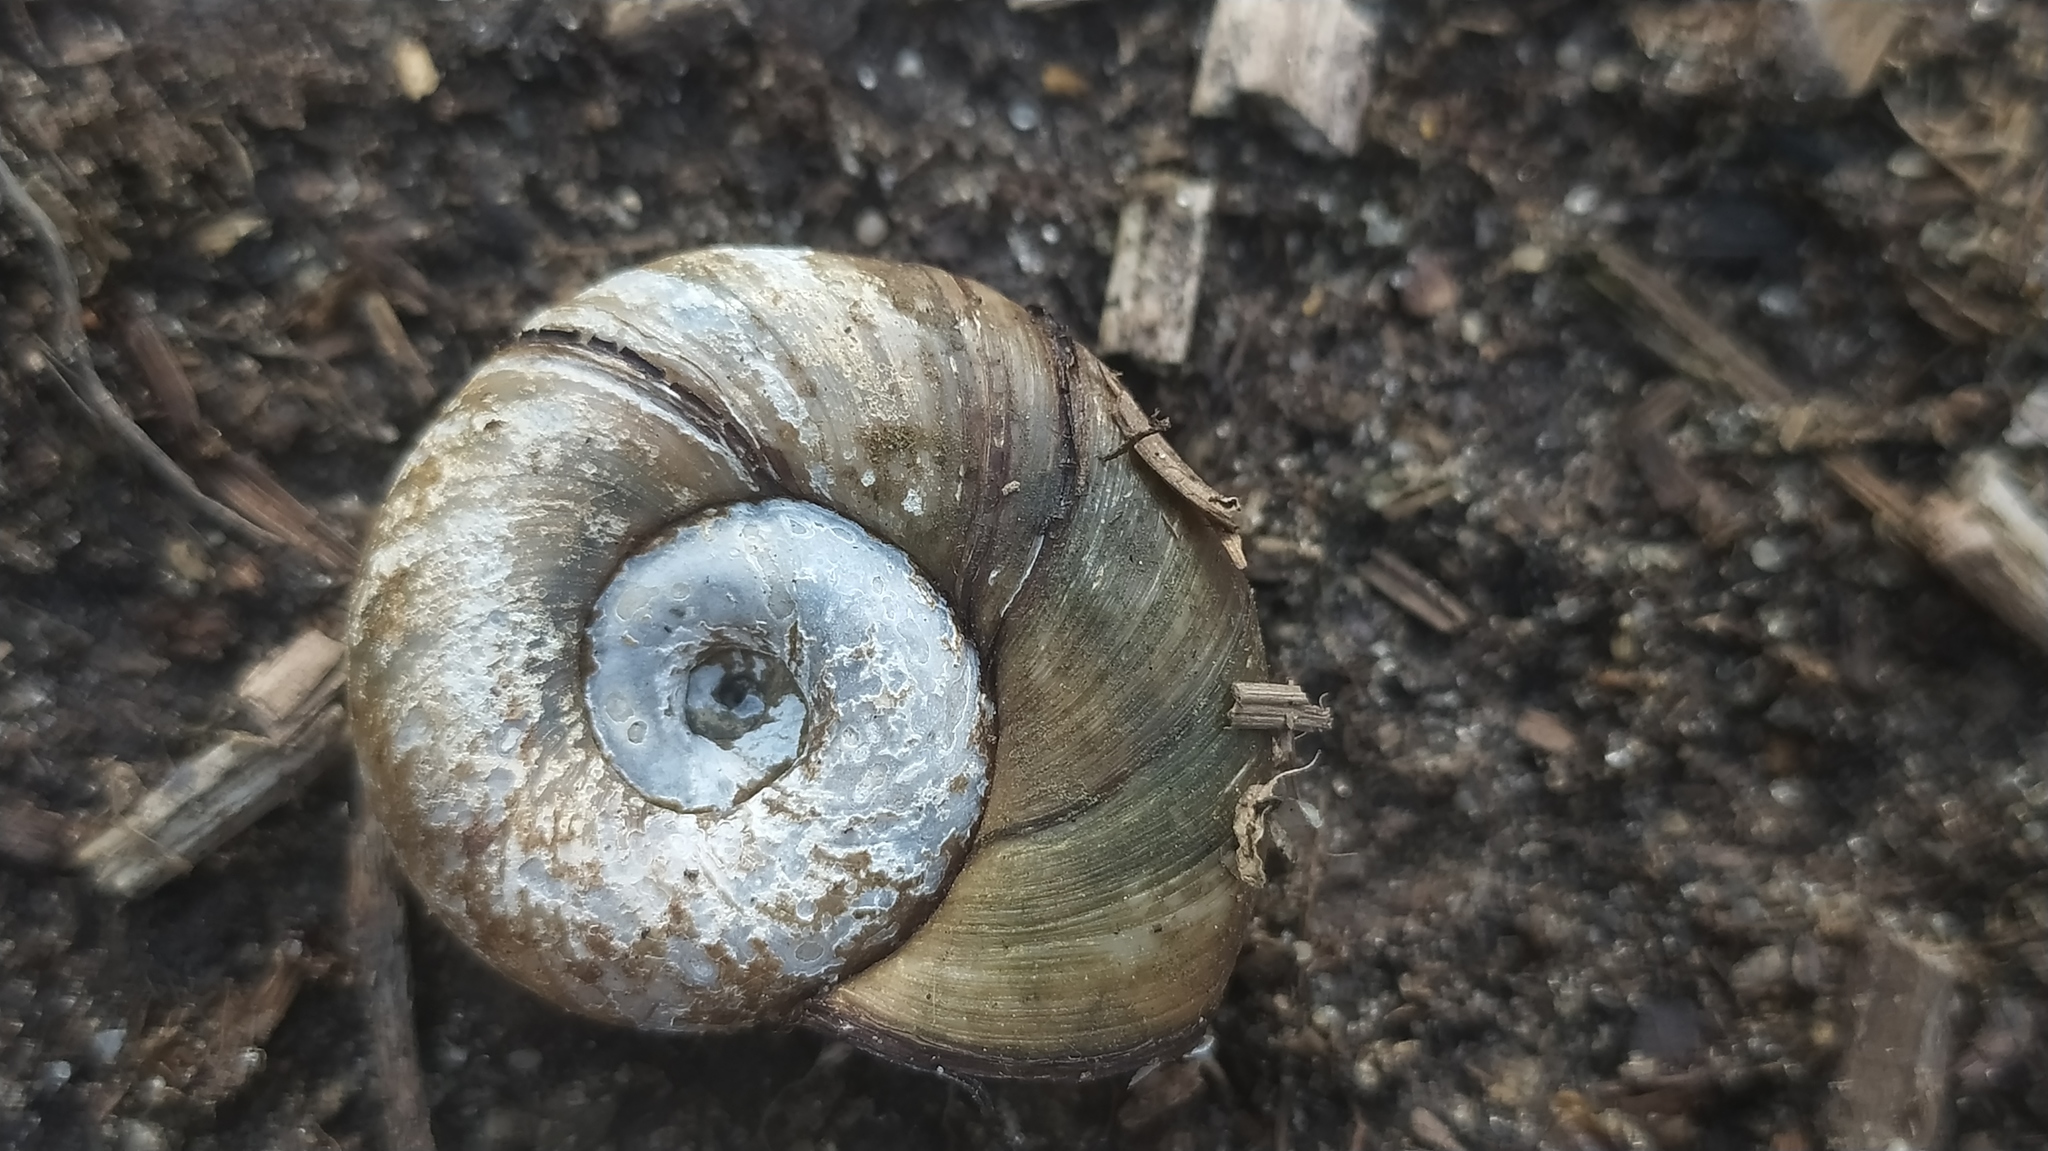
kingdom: Animalia
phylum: Mollusca
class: Gastropoda
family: Planorbidae
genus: Planorbarius
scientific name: Planorbarius corneus
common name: Great ramshorn
